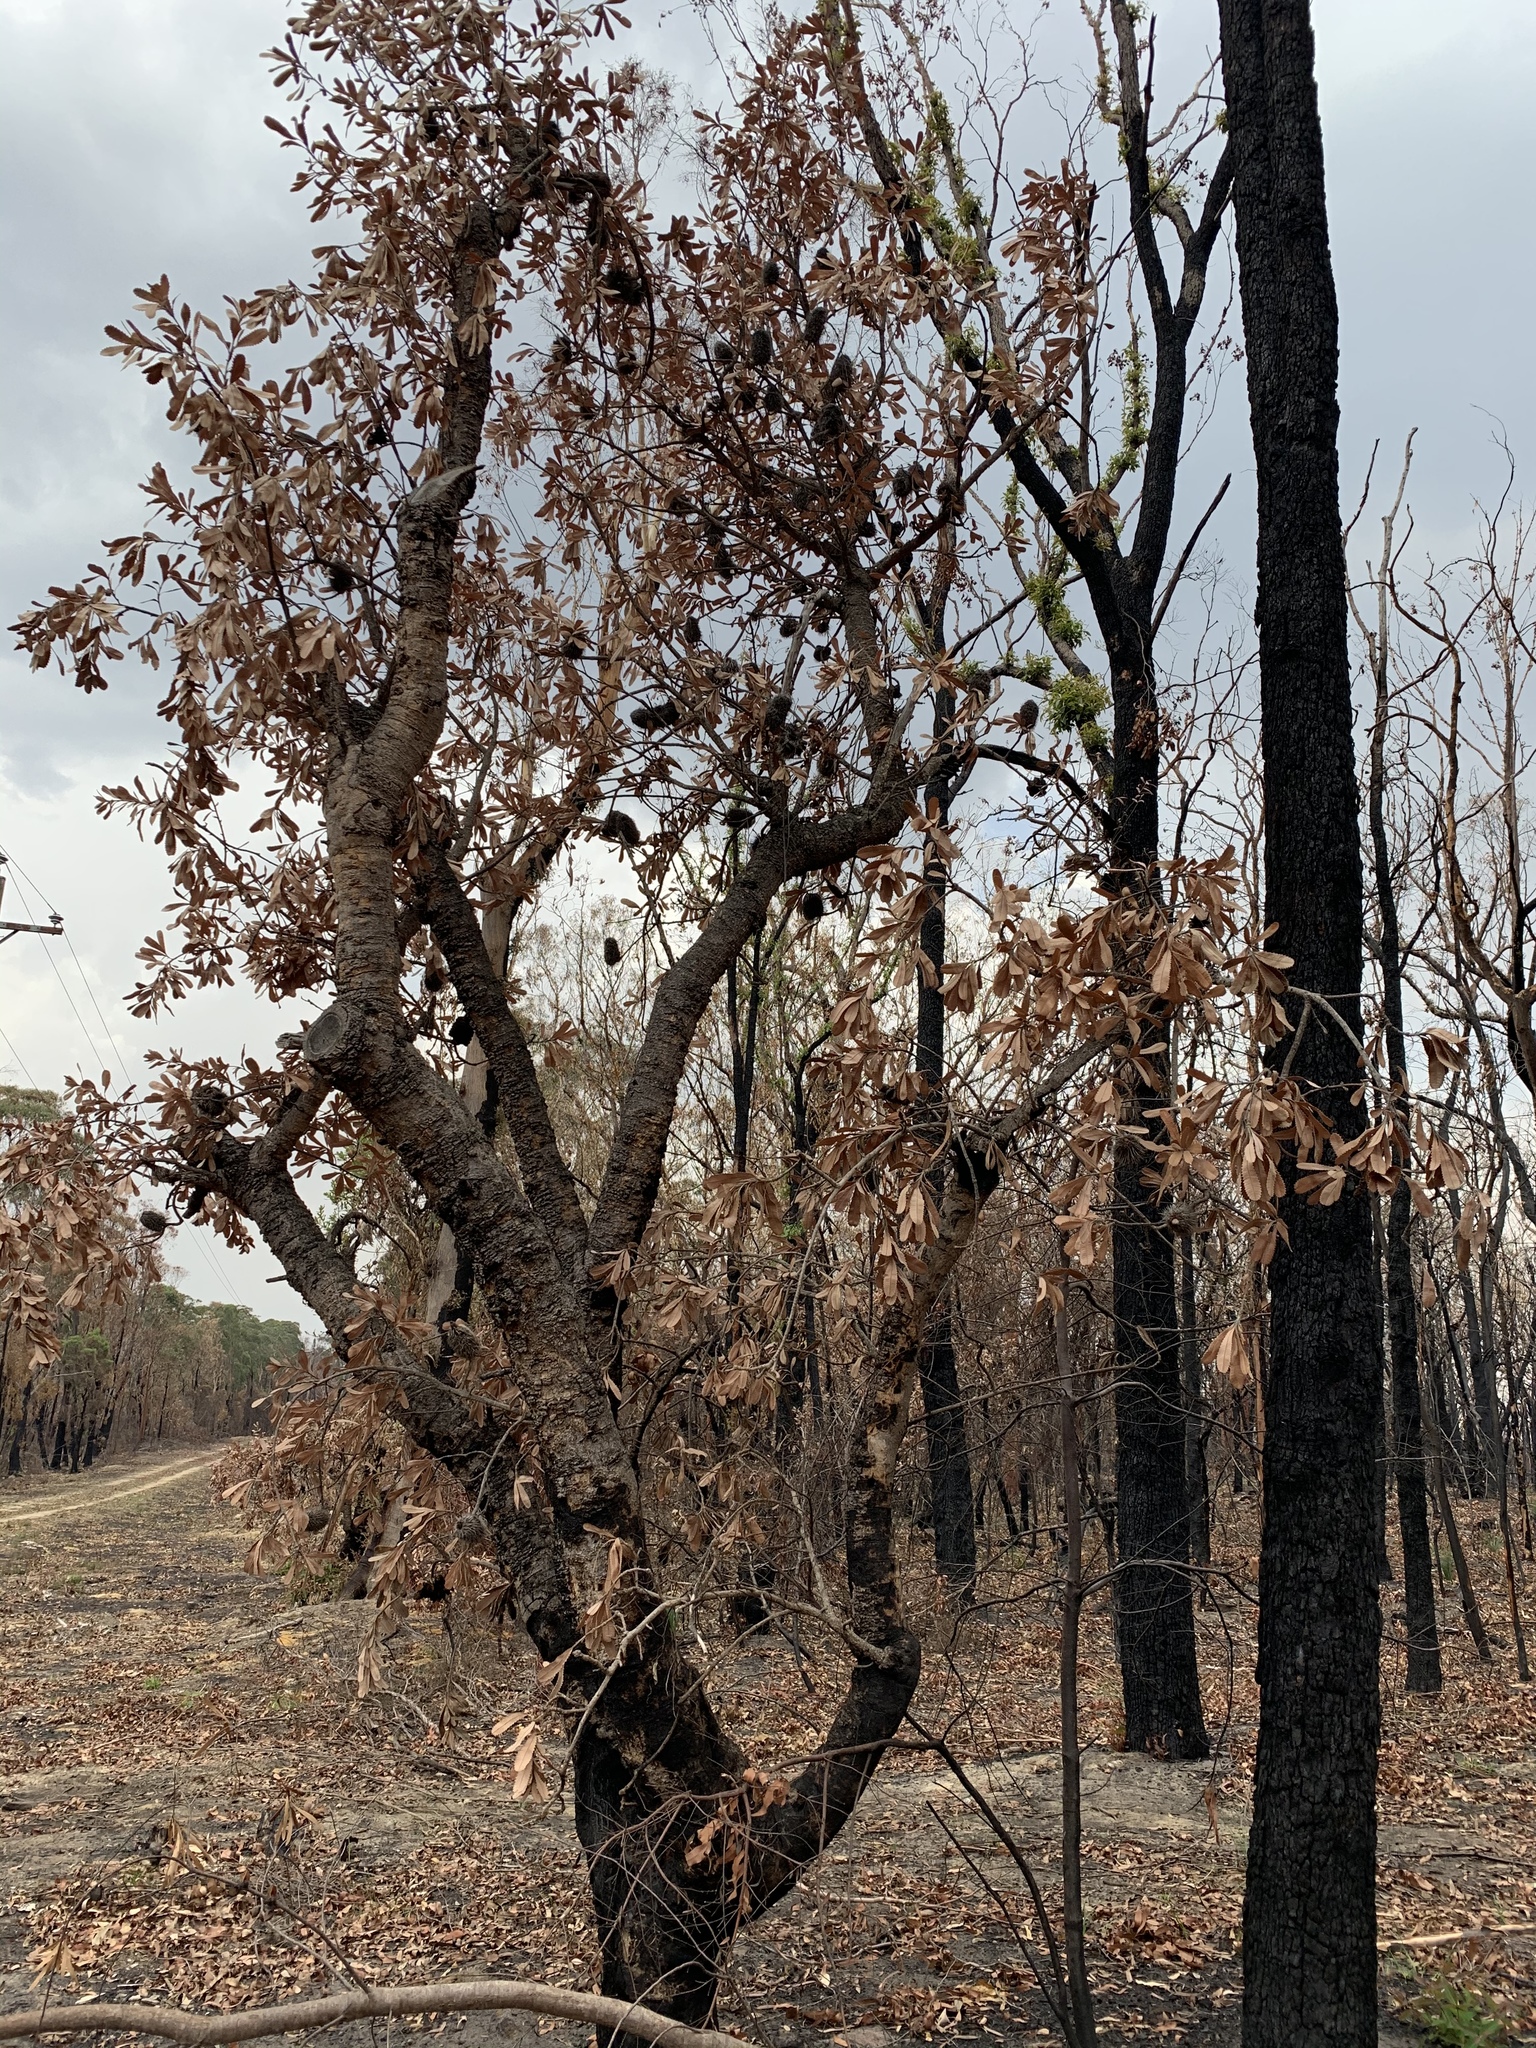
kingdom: Plantae
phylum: Tracheophyta
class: Magnoliopsida
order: Proteales
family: Proteaceae
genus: Banksia
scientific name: Banksia serrata
